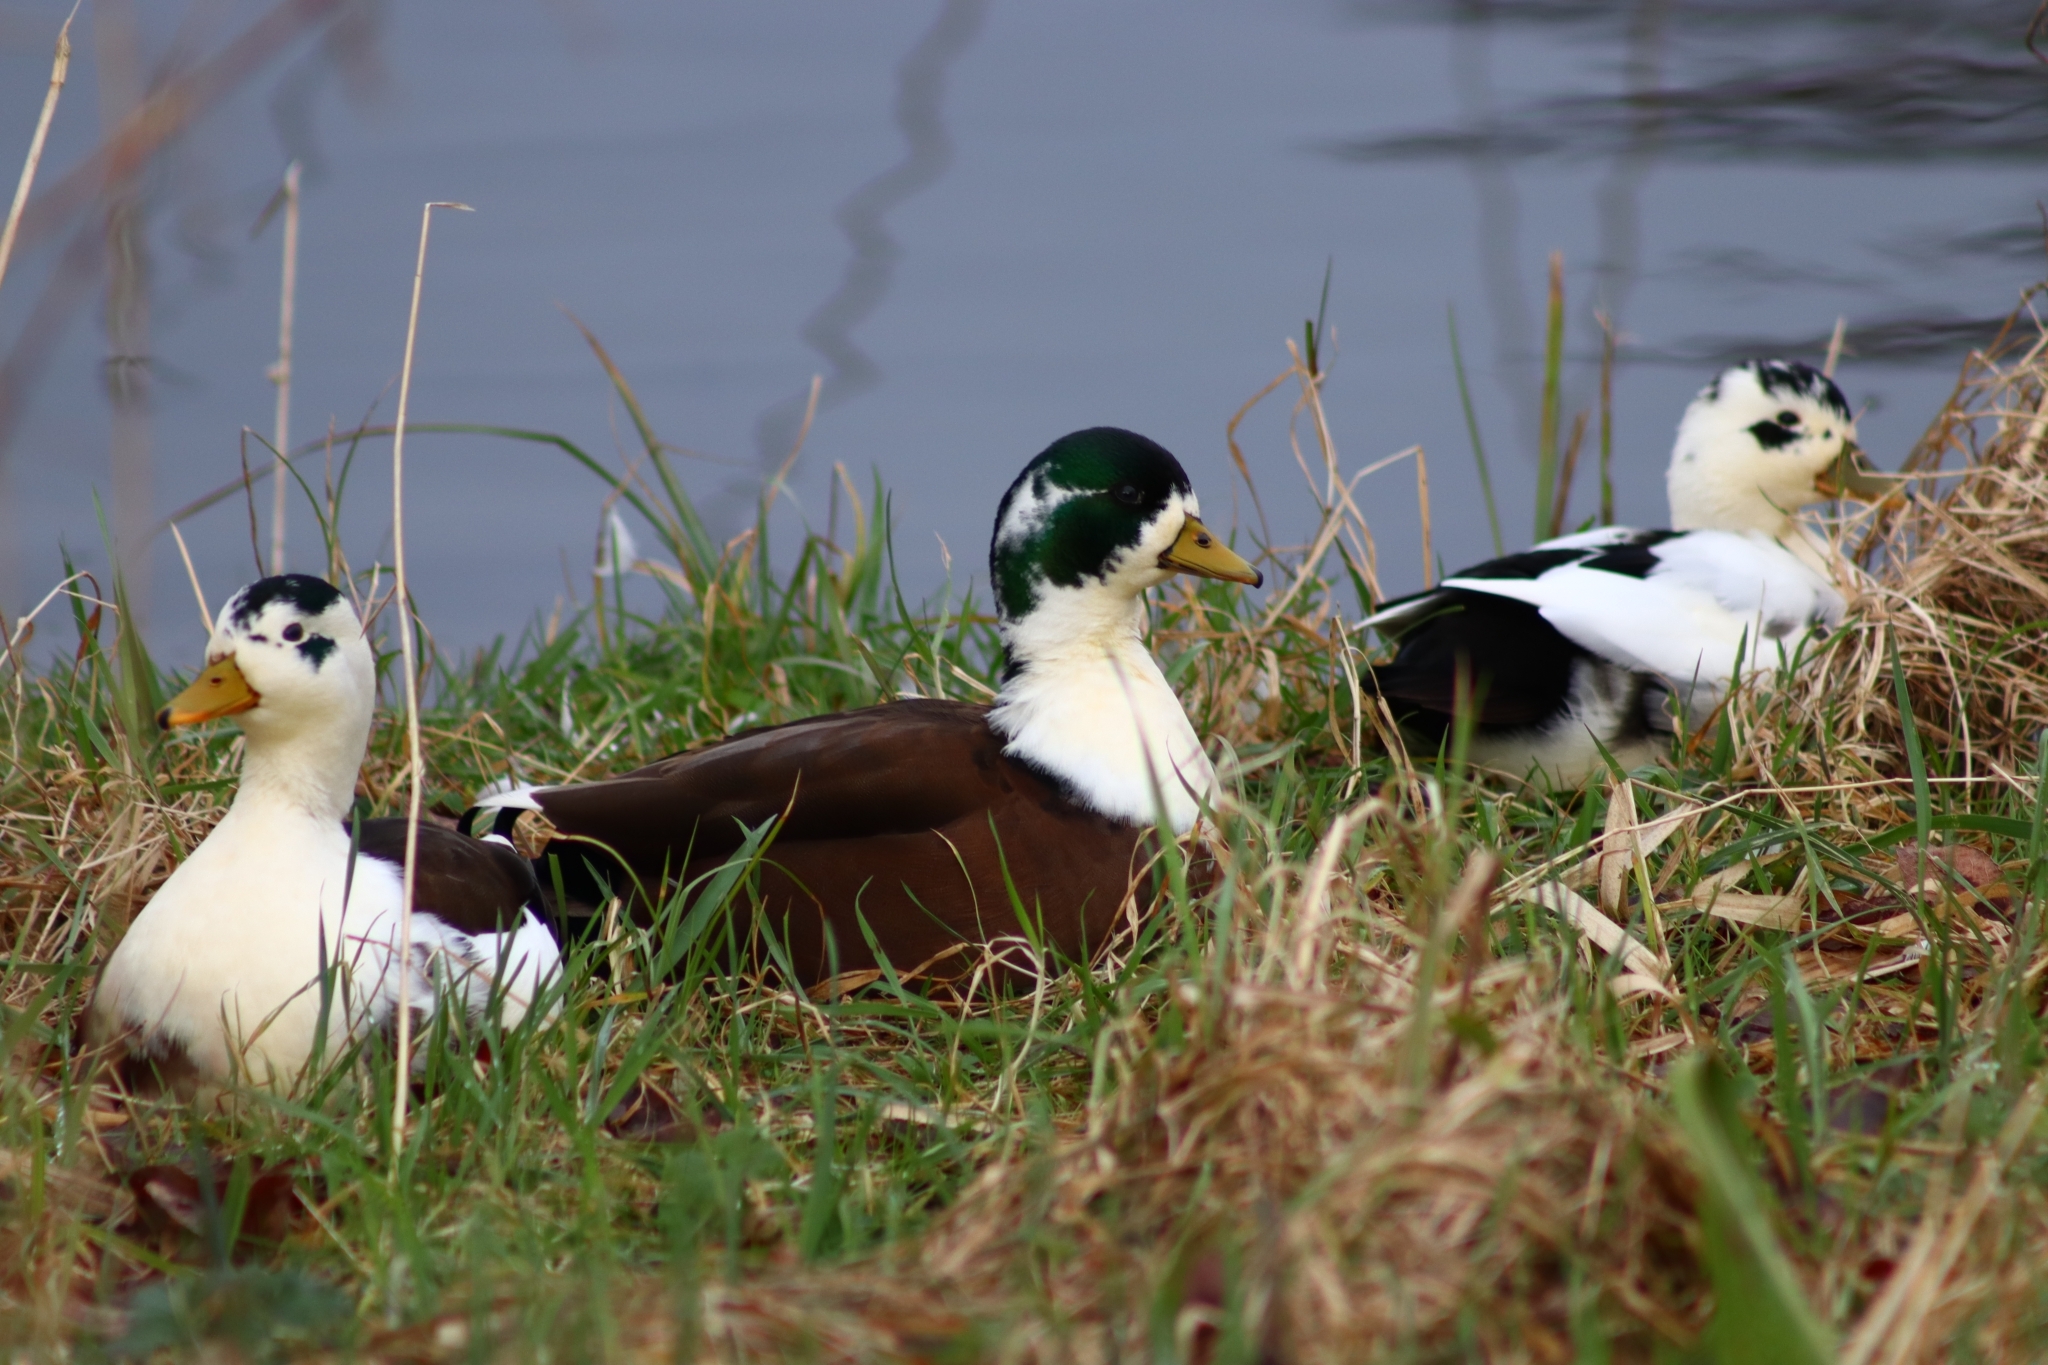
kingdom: Animalia
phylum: Chordata
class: Aves
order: Anseriformes
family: Anatidae
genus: Anas
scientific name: Anas platyrhynchos
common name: Mallard
